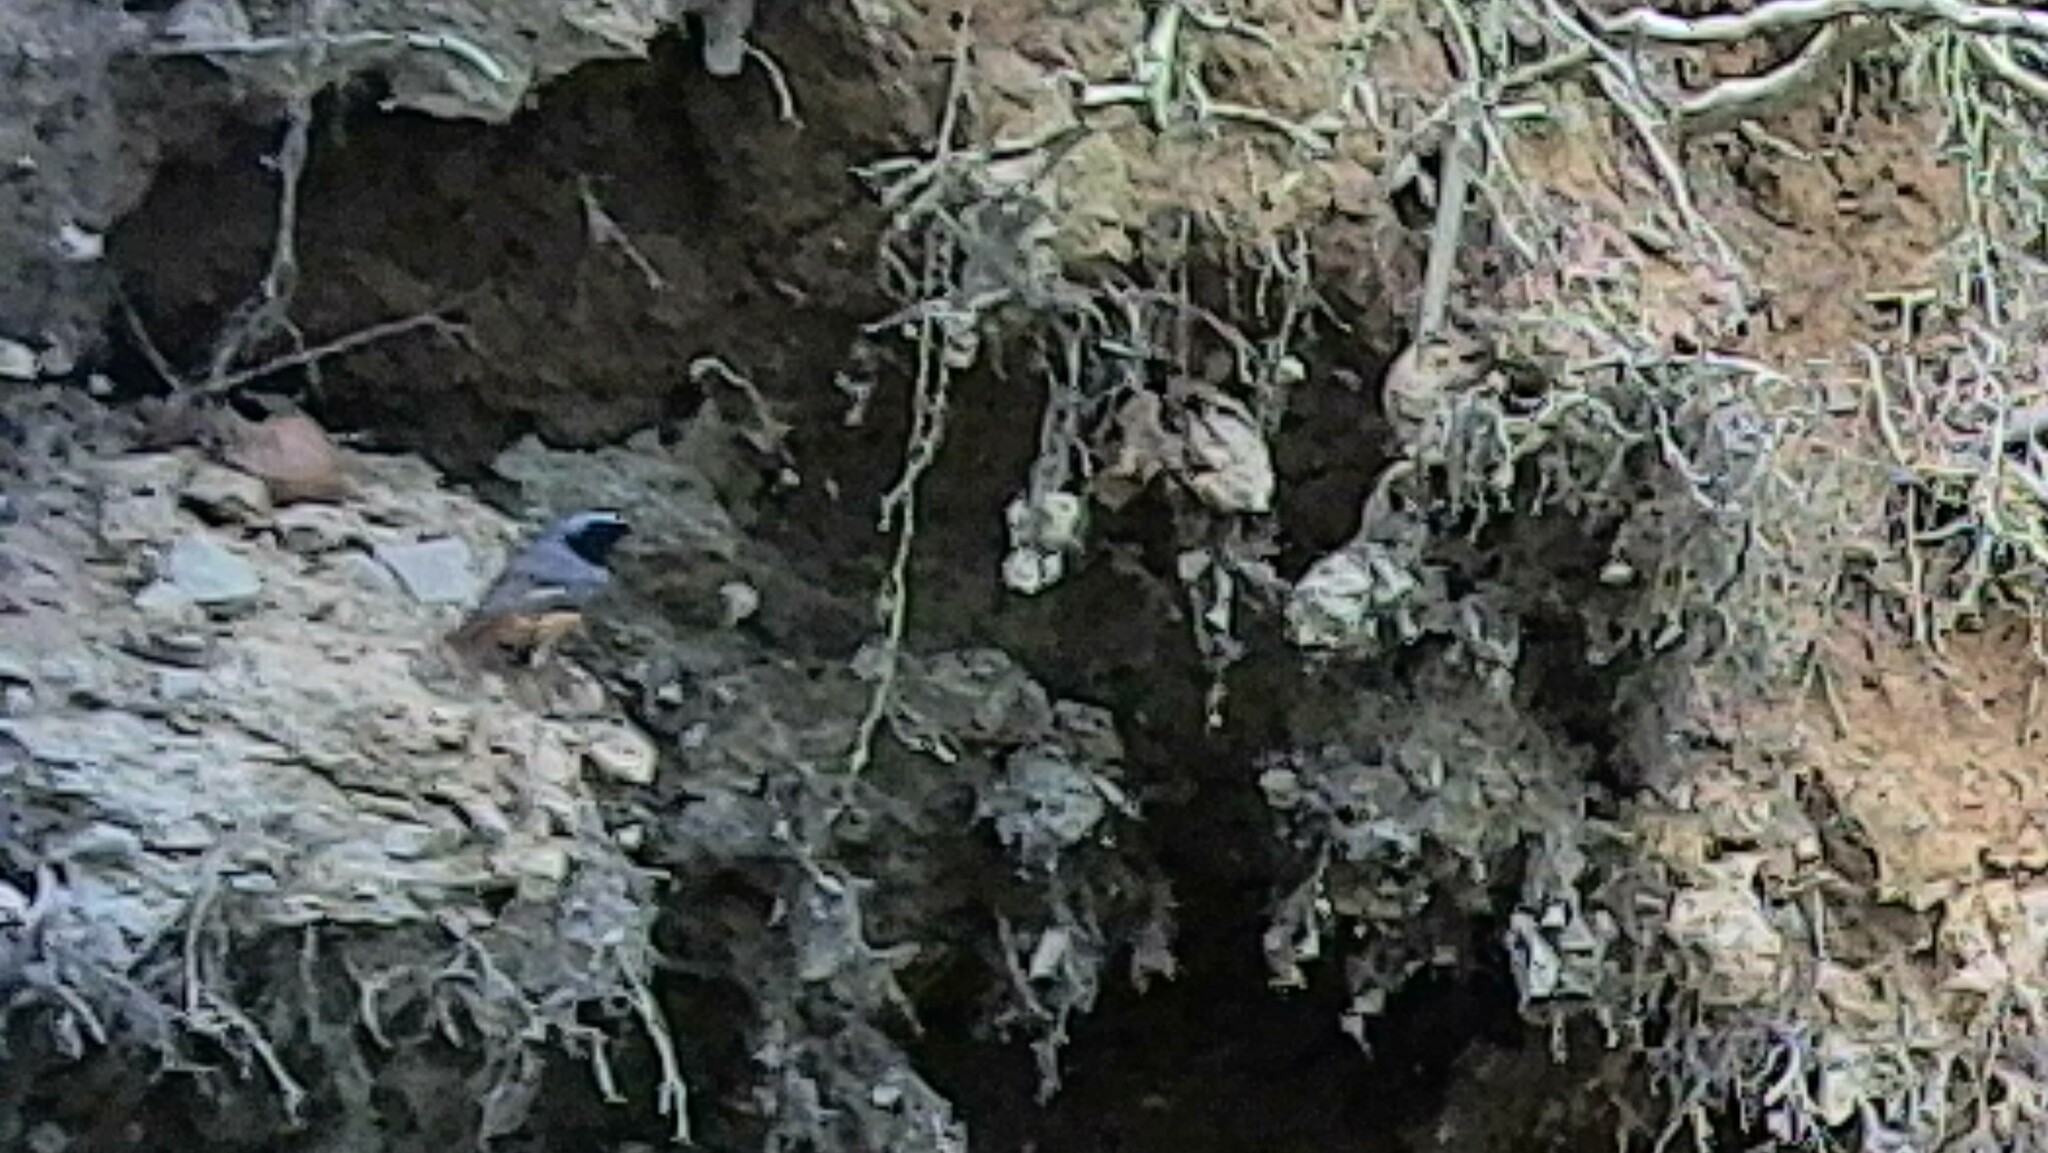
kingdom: Animalia
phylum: Chordata
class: Aves
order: Passeriformes
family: Muscicapidae
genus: Phoenicurus
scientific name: Phoenicurus phoenicurus
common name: Common redstart
